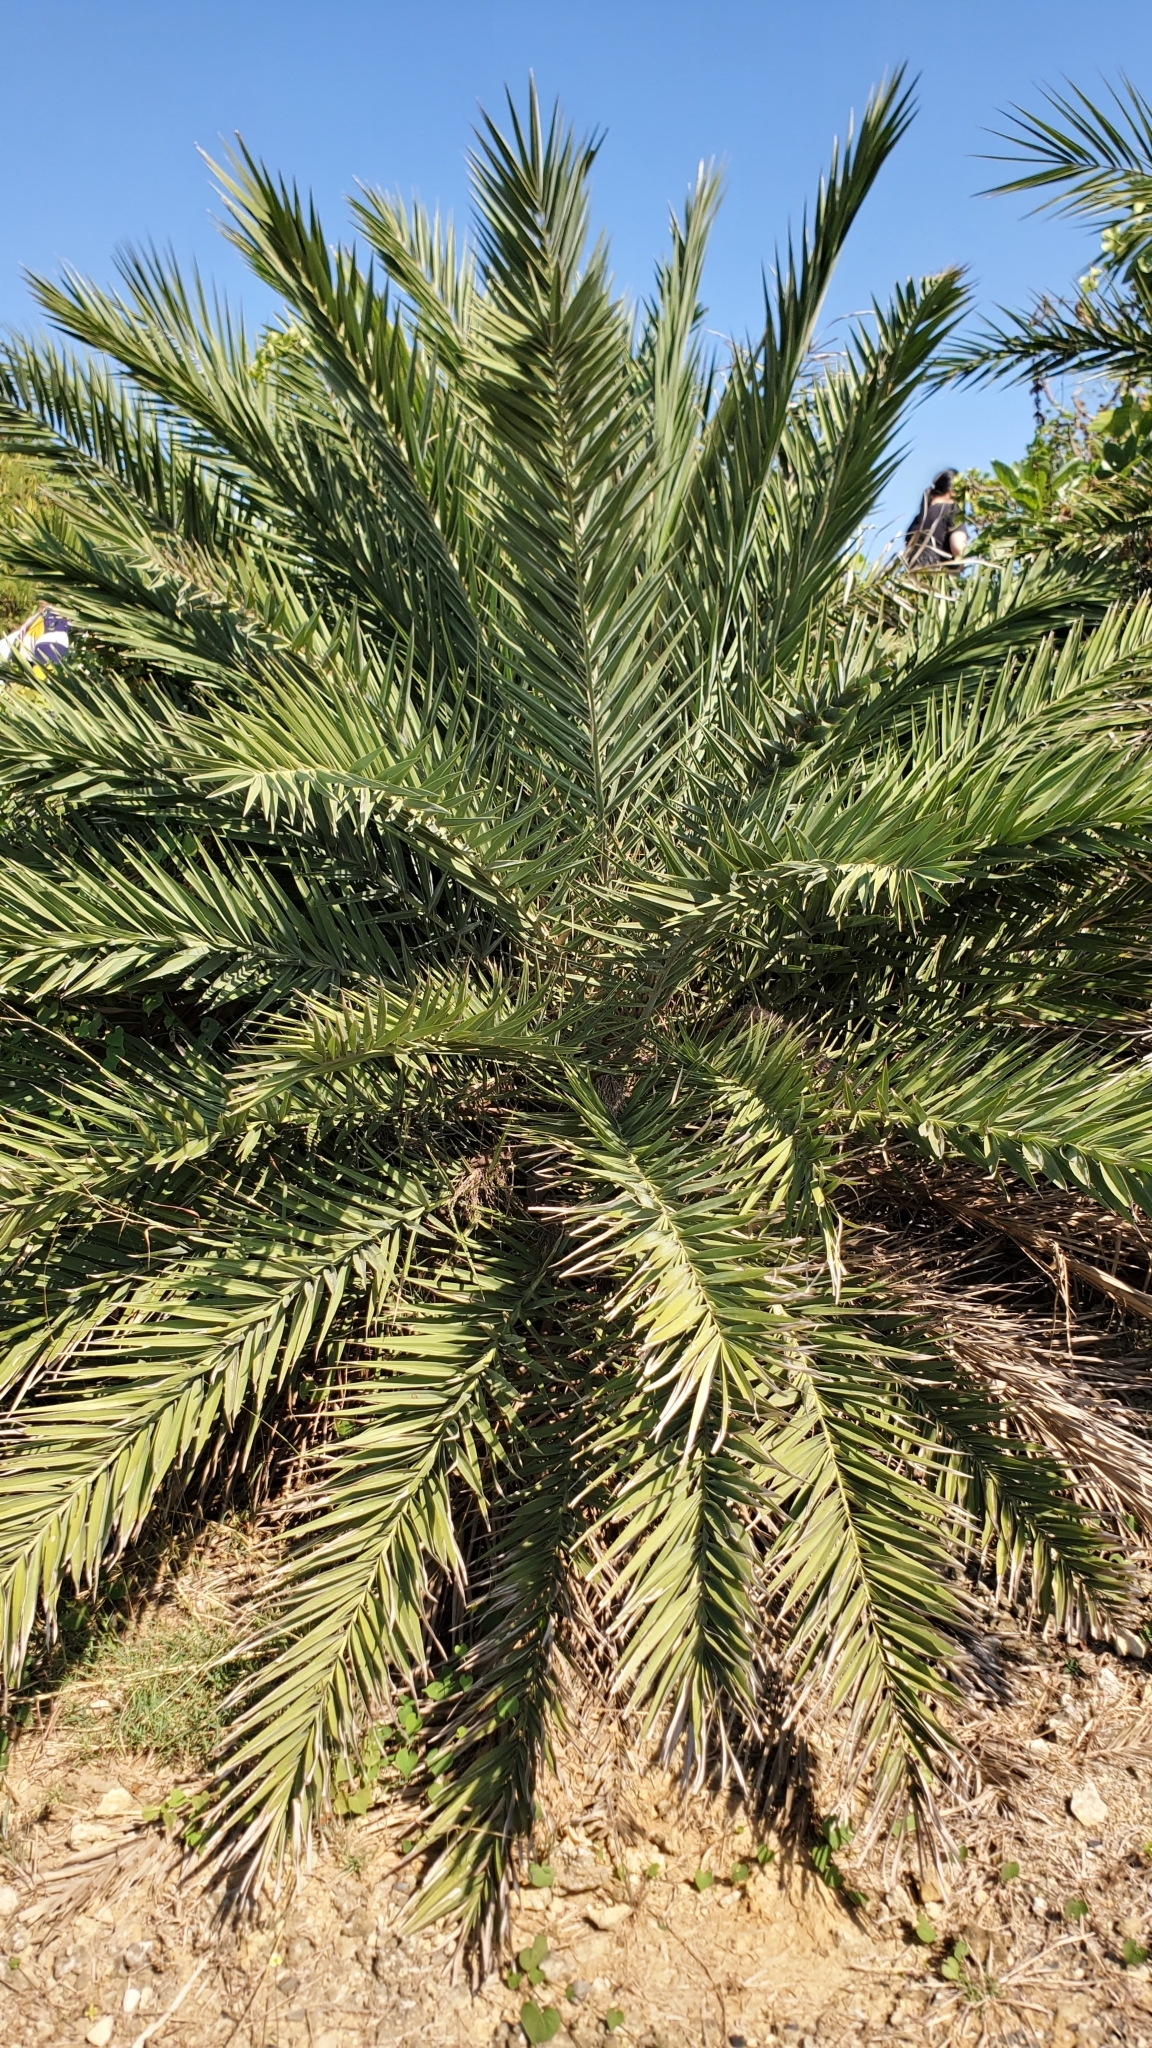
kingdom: Plantae
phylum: Tracheophyta
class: Liliopsida
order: Arecales
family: Arecaceae
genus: Phoenix
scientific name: Phoenix loureiroi
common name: Loureiro's palm
